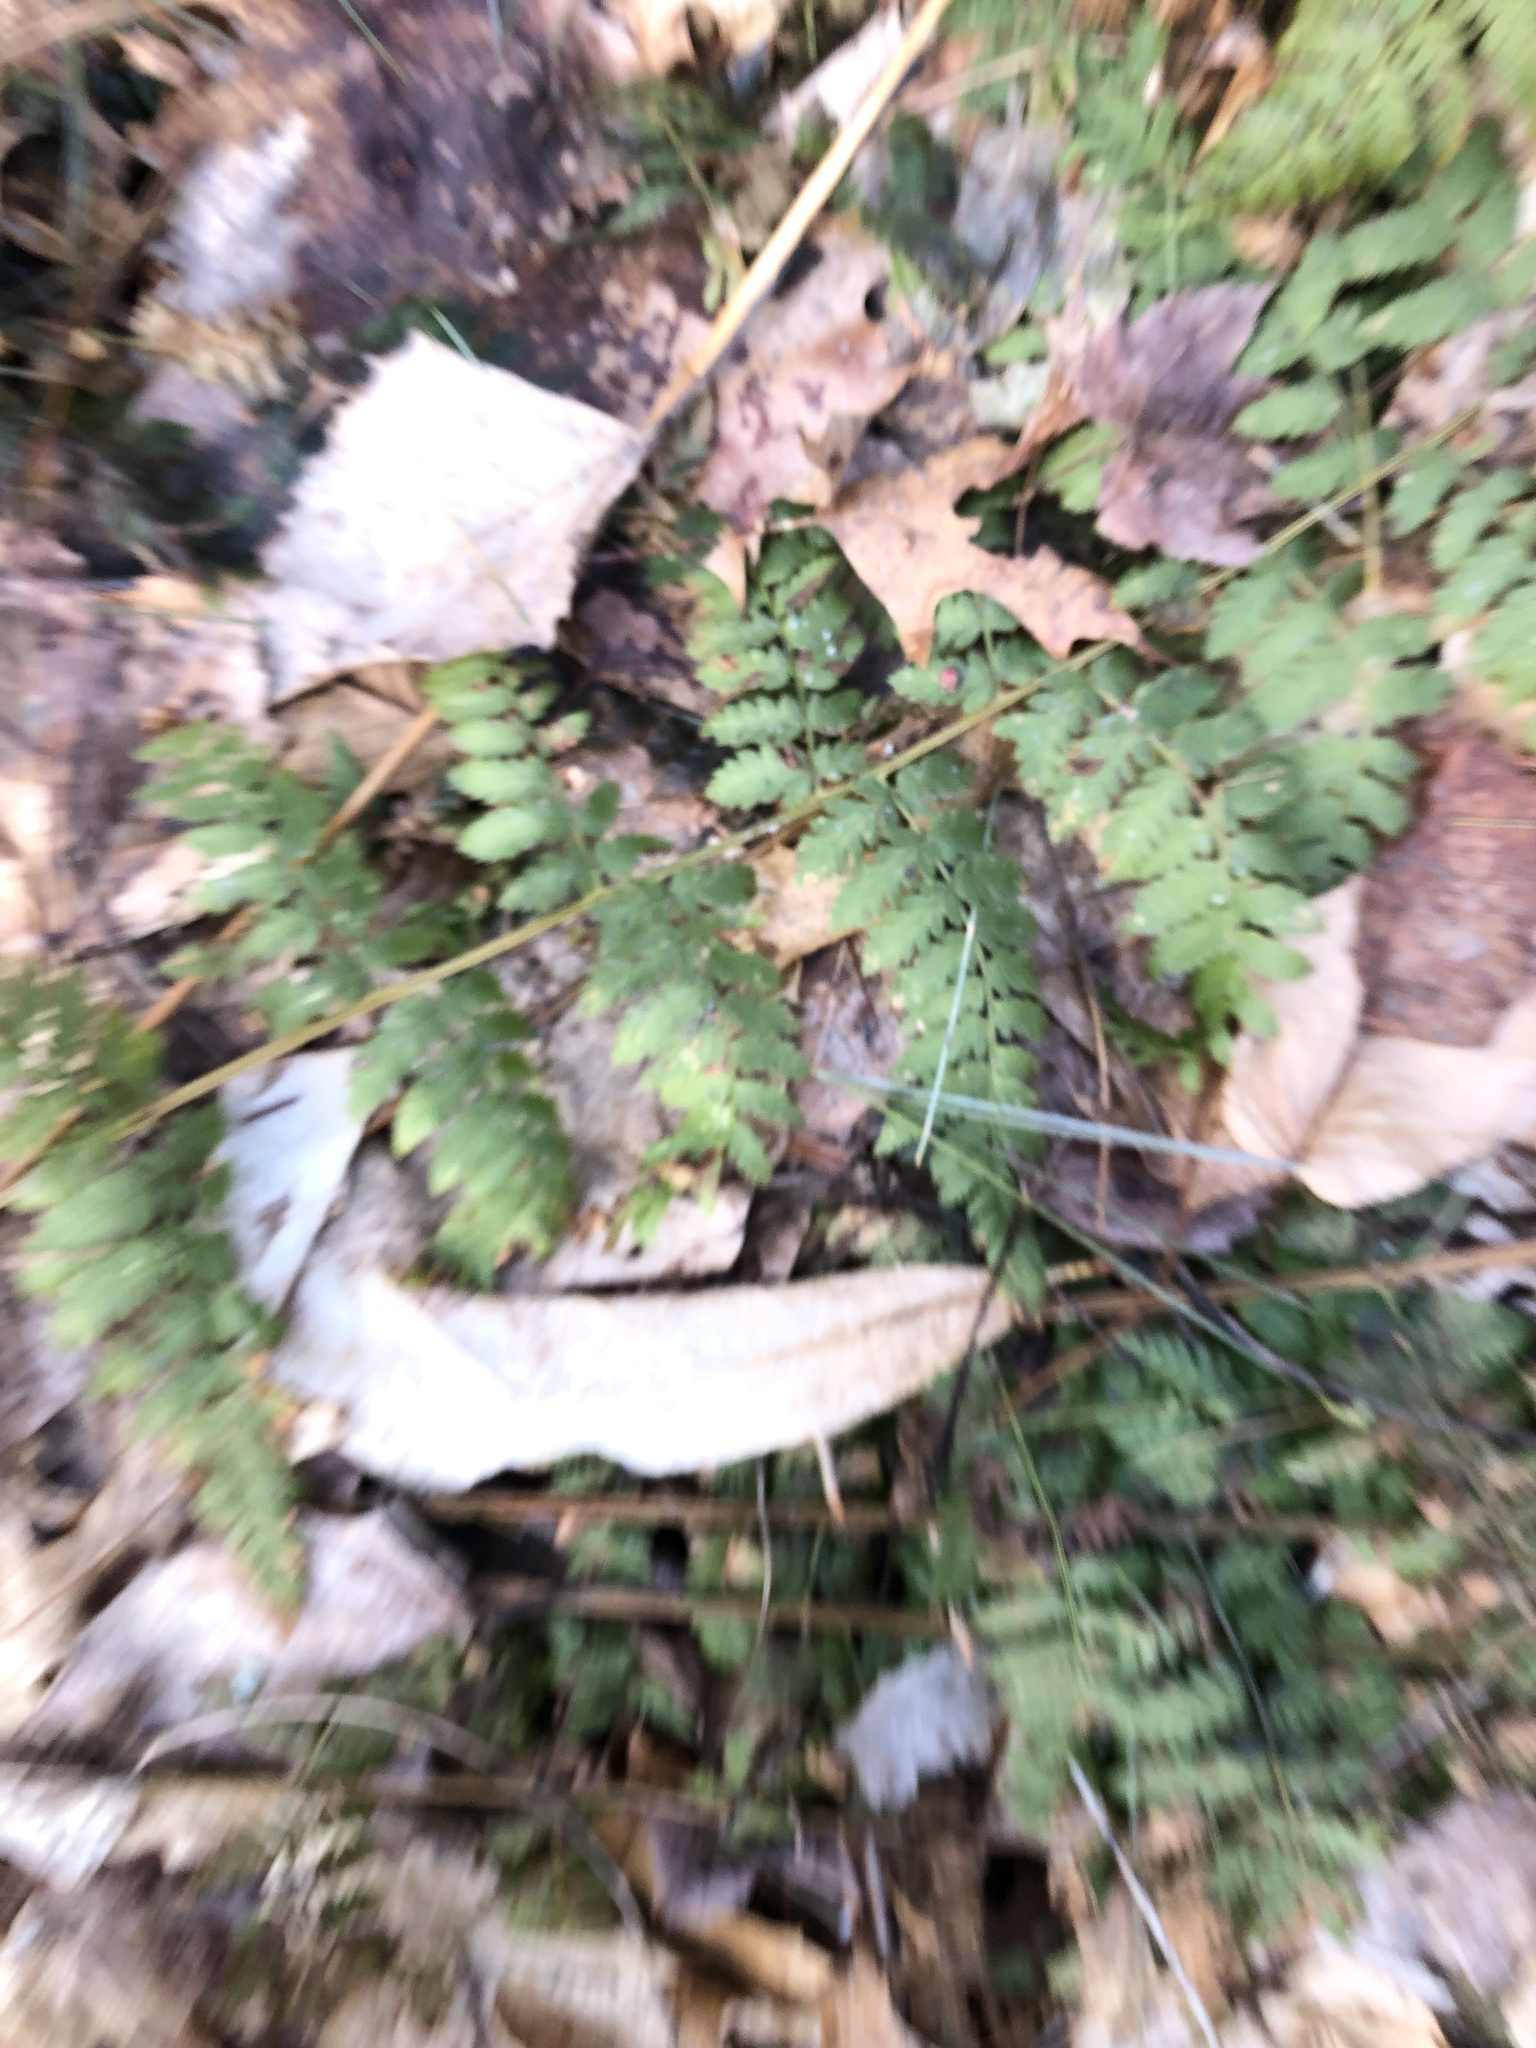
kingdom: Plantae
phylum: Tracheophyta
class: Polypodiopsida
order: Polypodiales
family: Dryopteridaceae
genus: Dryopteris
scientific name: Dryopteris intermedia
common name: Evergreen wood fern
